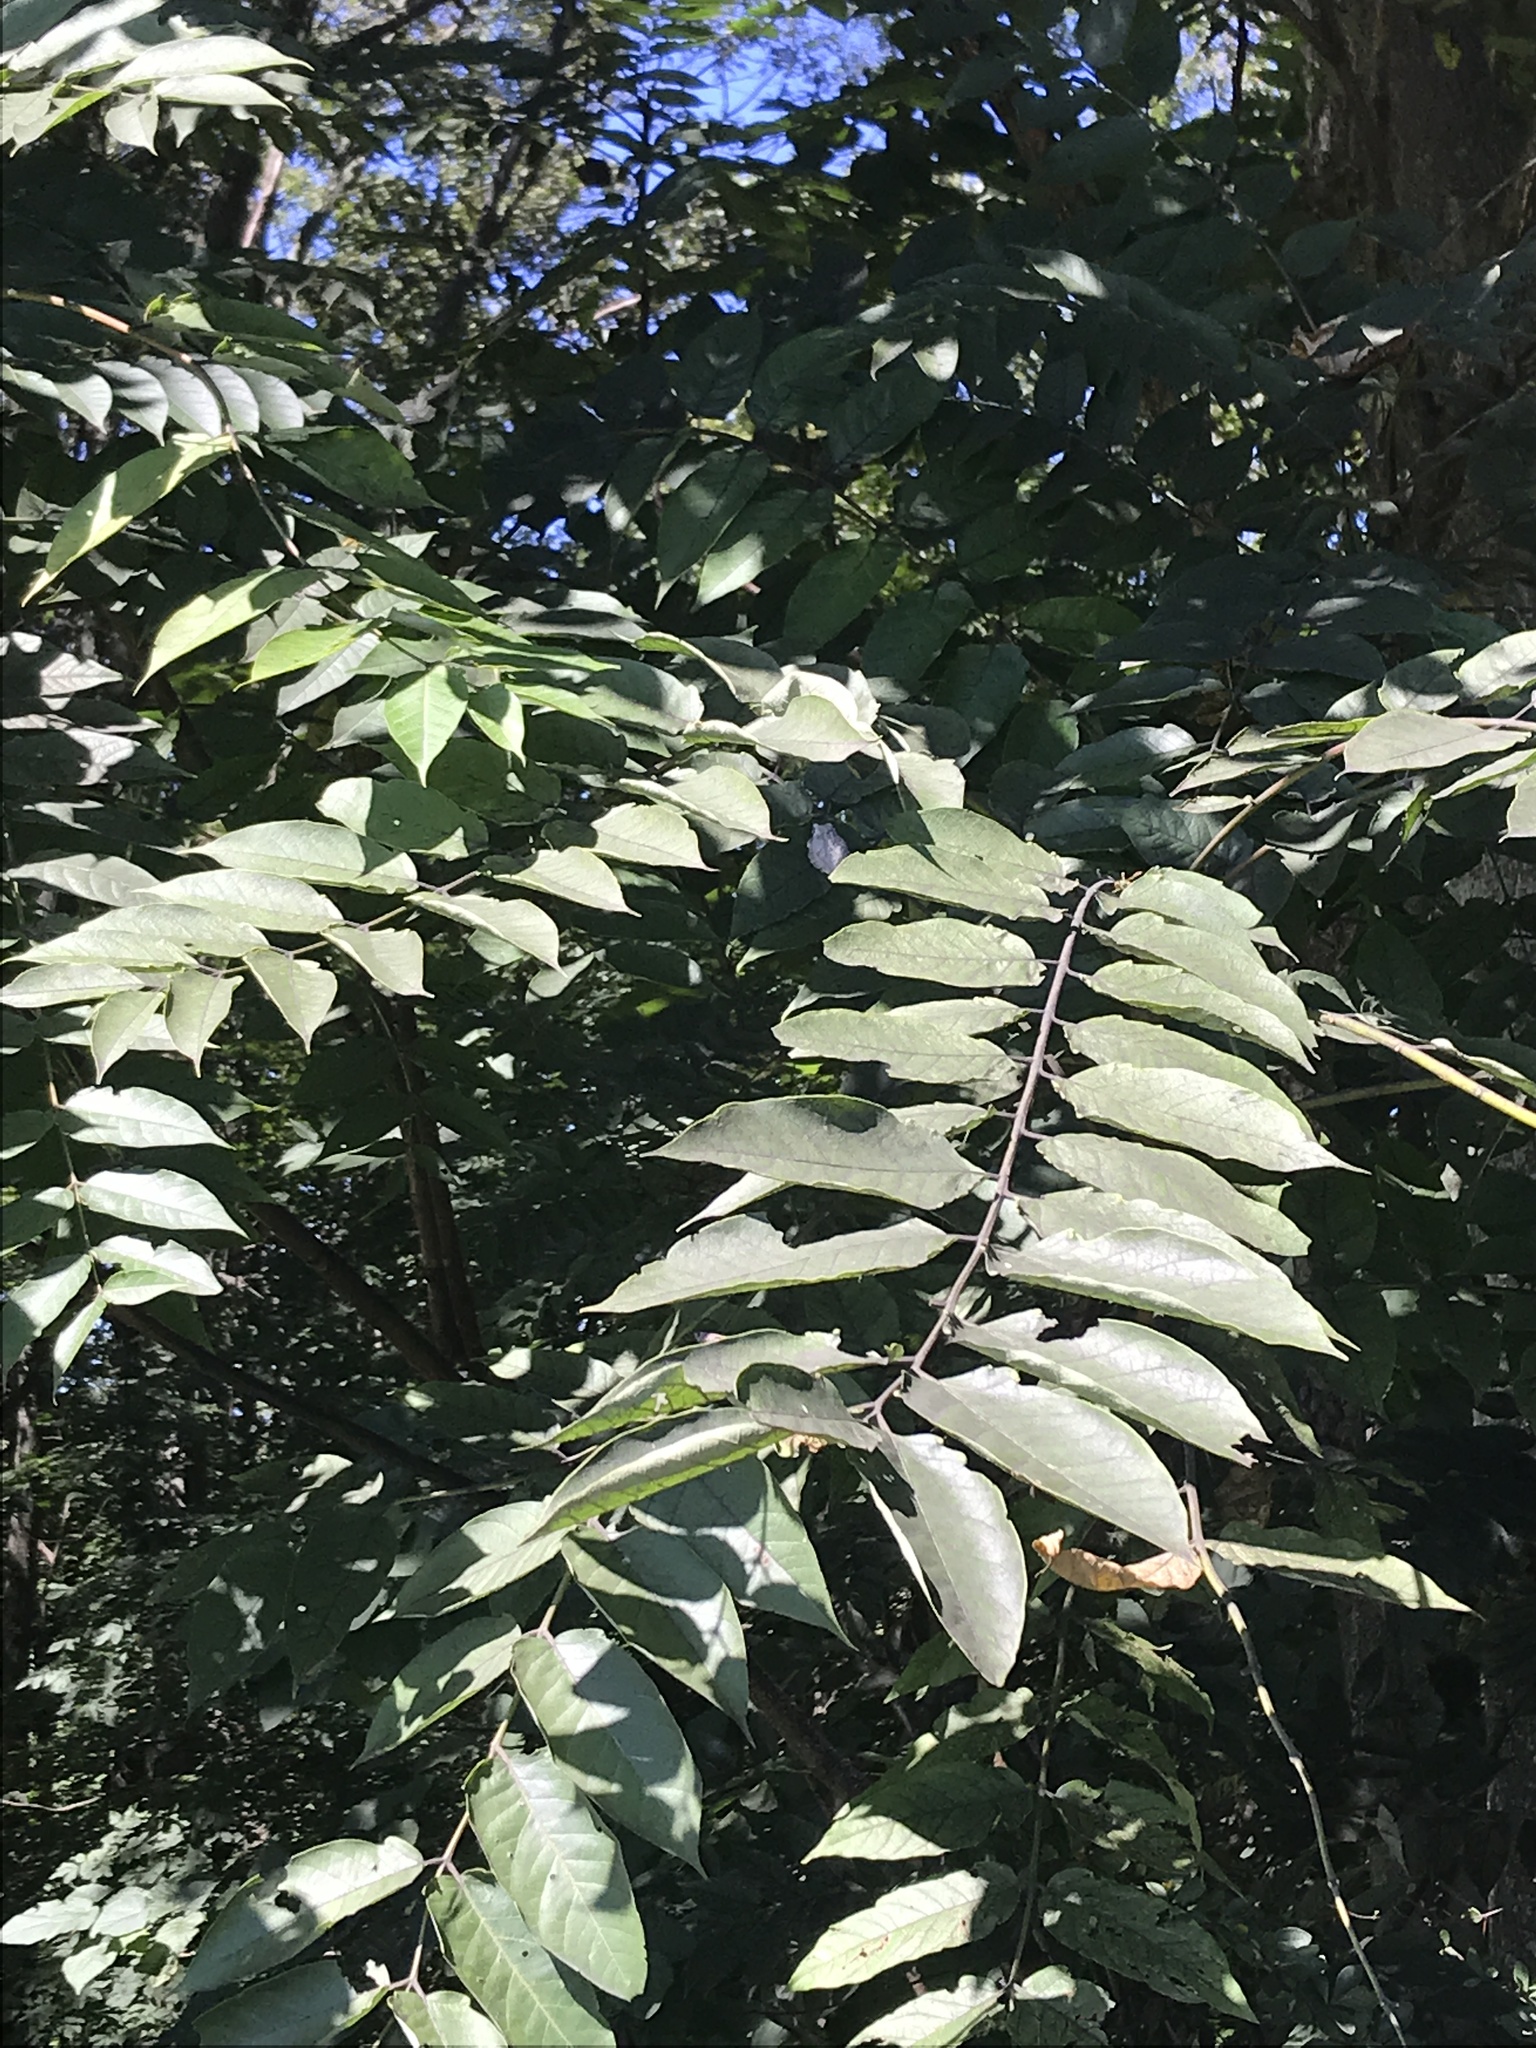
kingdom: Plantae
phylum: Tracheophyta
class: Magnoliopsida
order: Sapindales
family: Simaroubaceae
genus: Ailanthus
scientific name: Ailanthus altissima
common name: Tree-of-heaven
